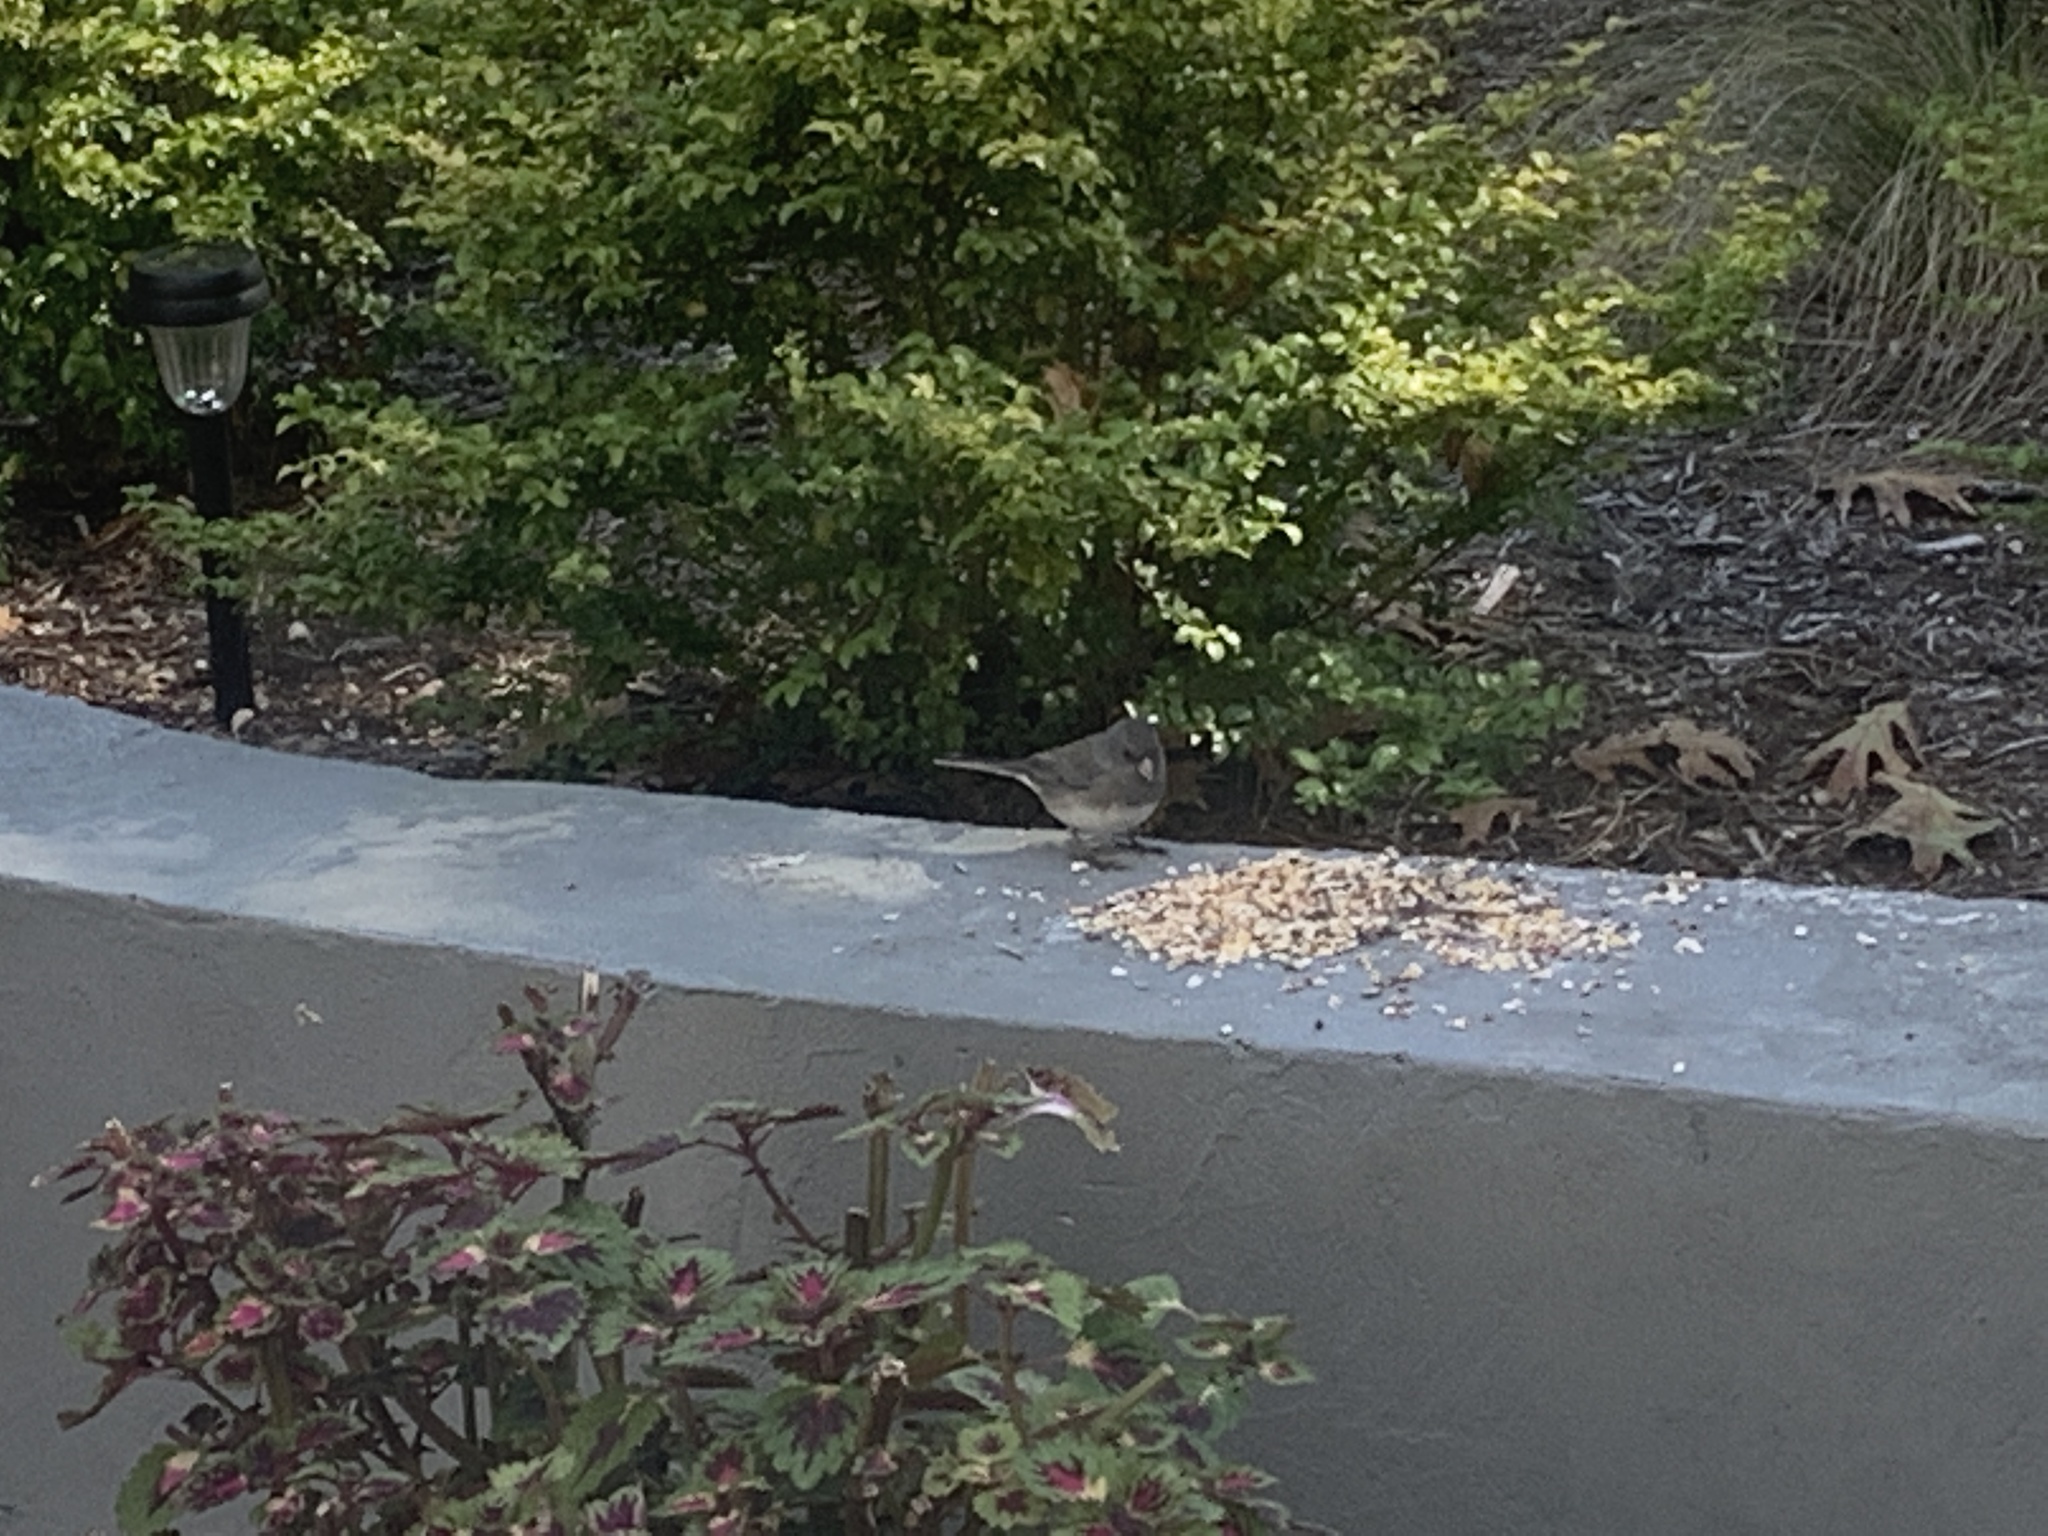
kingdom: Animalia
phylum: Chordata
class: Aves
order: Passeriformes
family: Passerellidae
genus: Junco
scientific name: Junco hyemalis
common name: Dark-eyed junco
